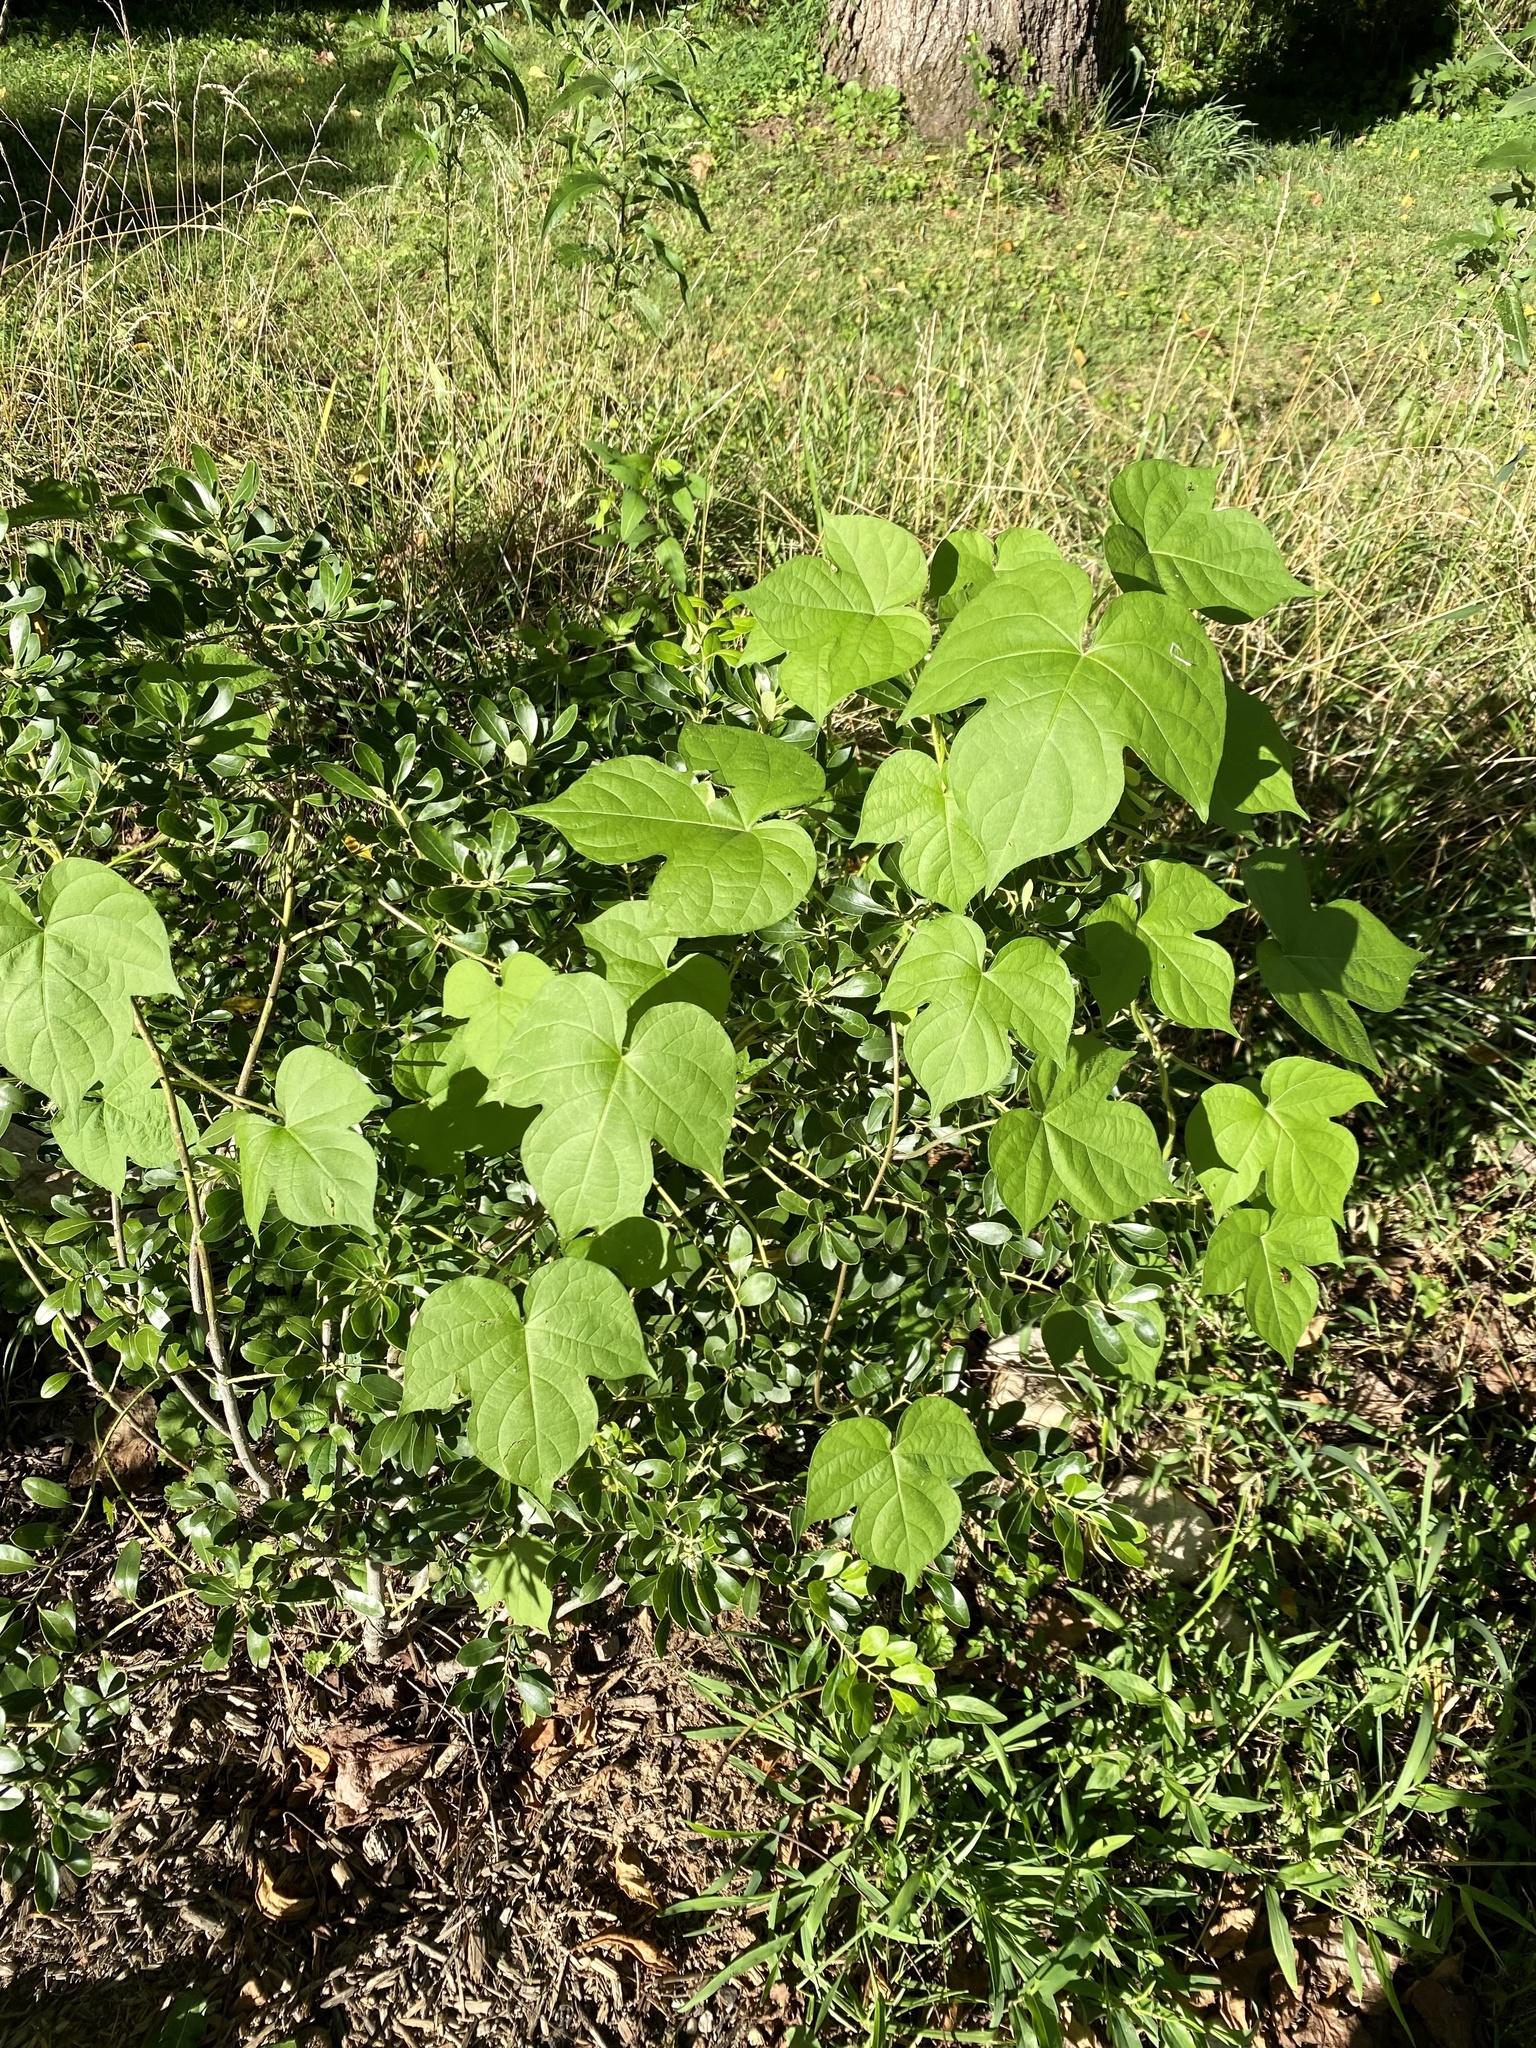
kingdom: Plantae
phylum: Tracheophyta
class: Magnoliopsida
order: Solanales
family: Convolvulaceae
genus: Ipomoea
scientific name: Ipomoea hederacea
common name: Ivy-leaved morning-glory
